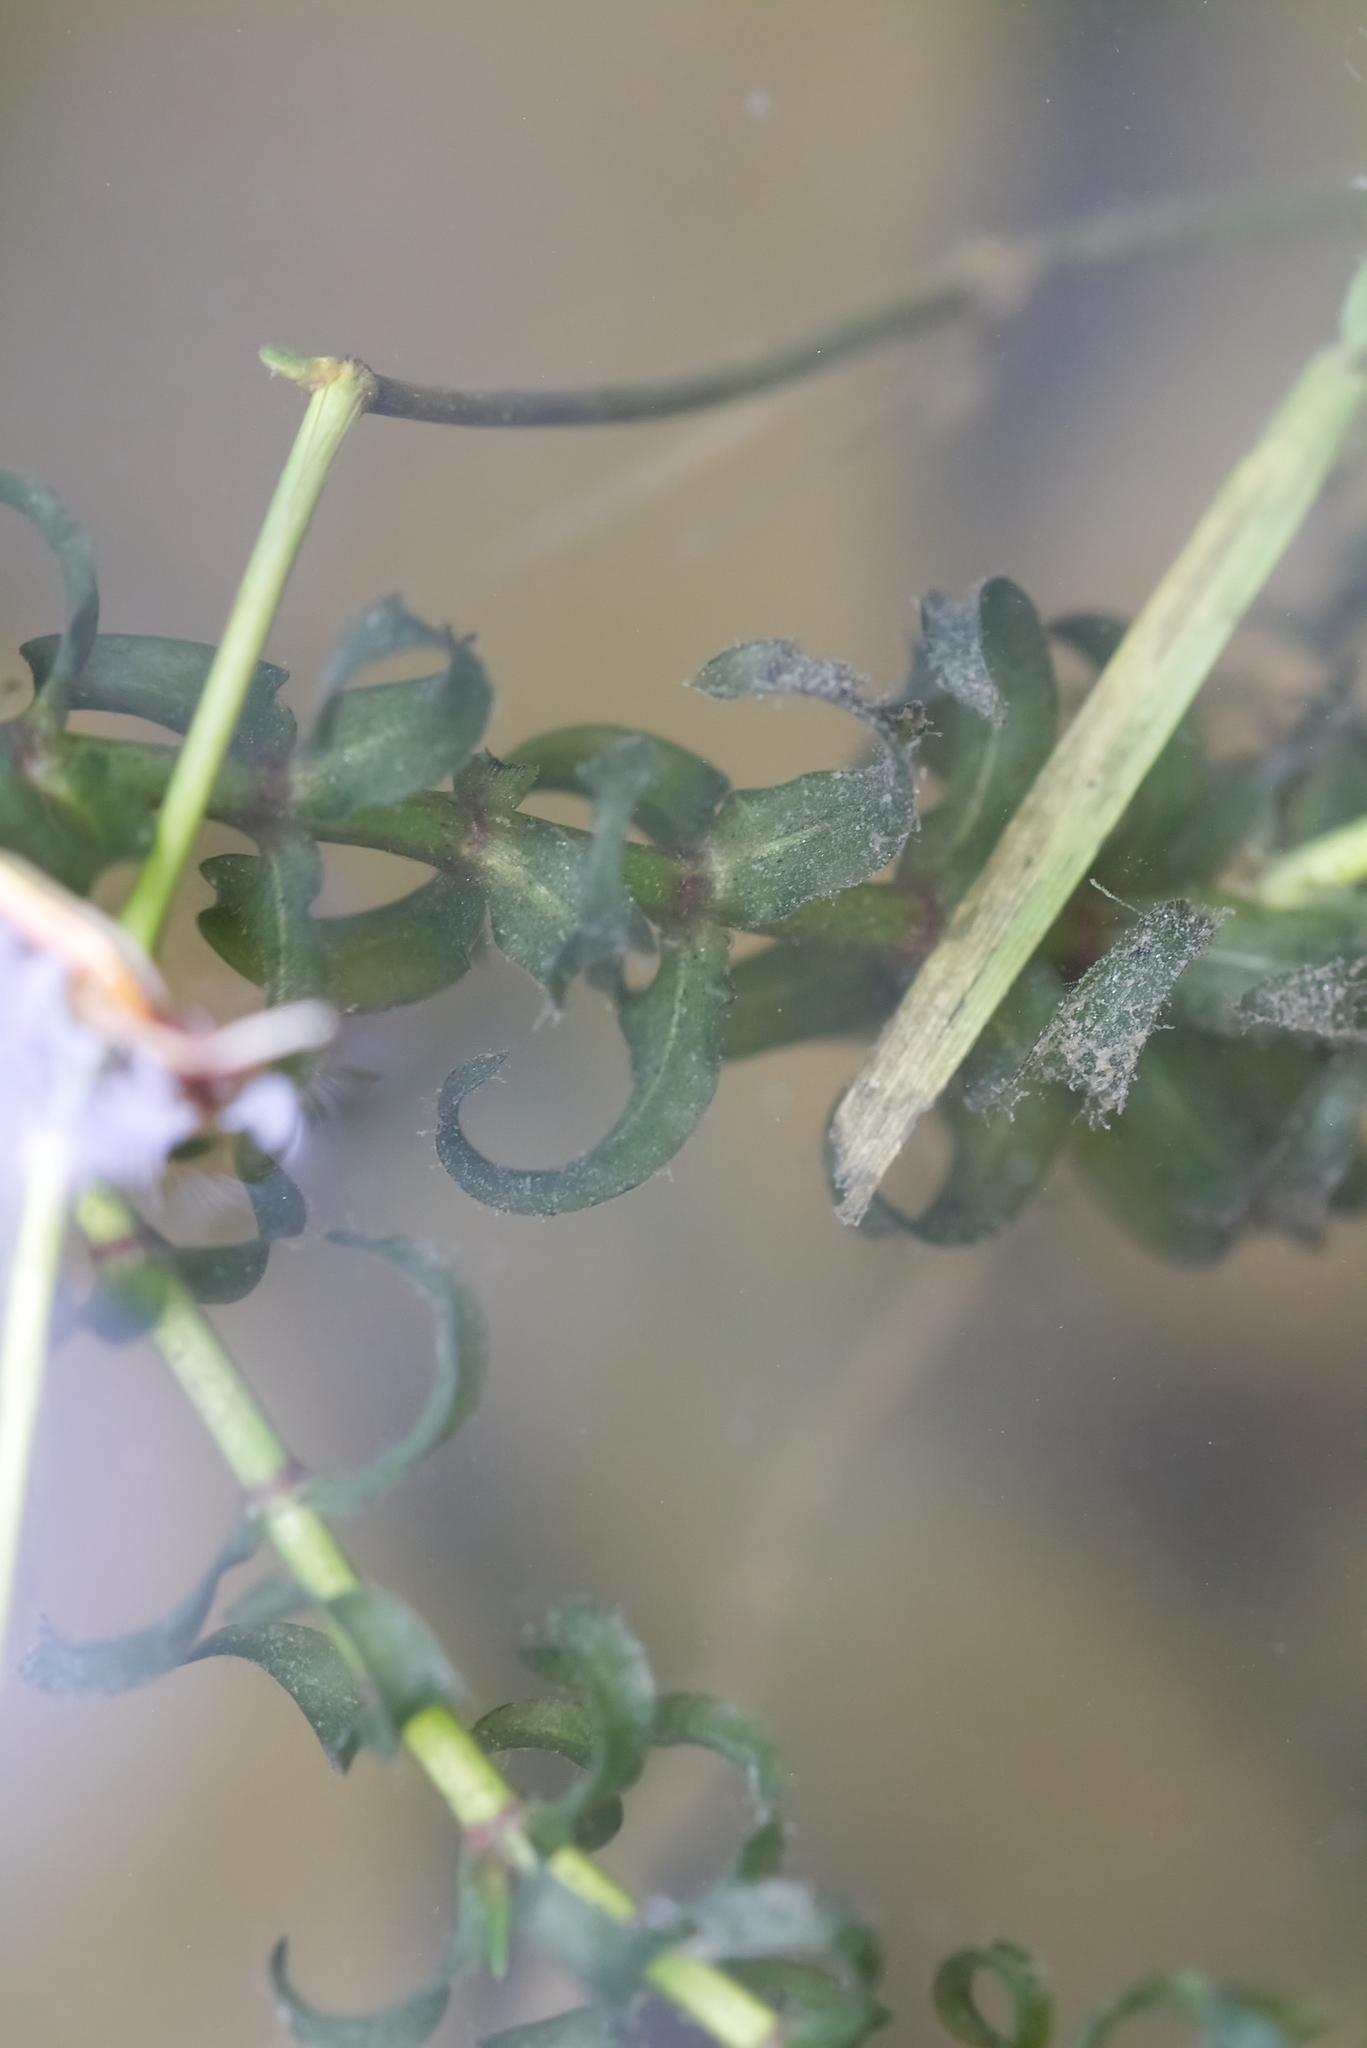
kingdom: Plantae
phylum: Tracheophyta
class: Liliopsida
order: Alismatales
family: Hydrocharitaceae
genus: Elodea
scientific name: Elodea canadensis
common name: Canadian waterweed
